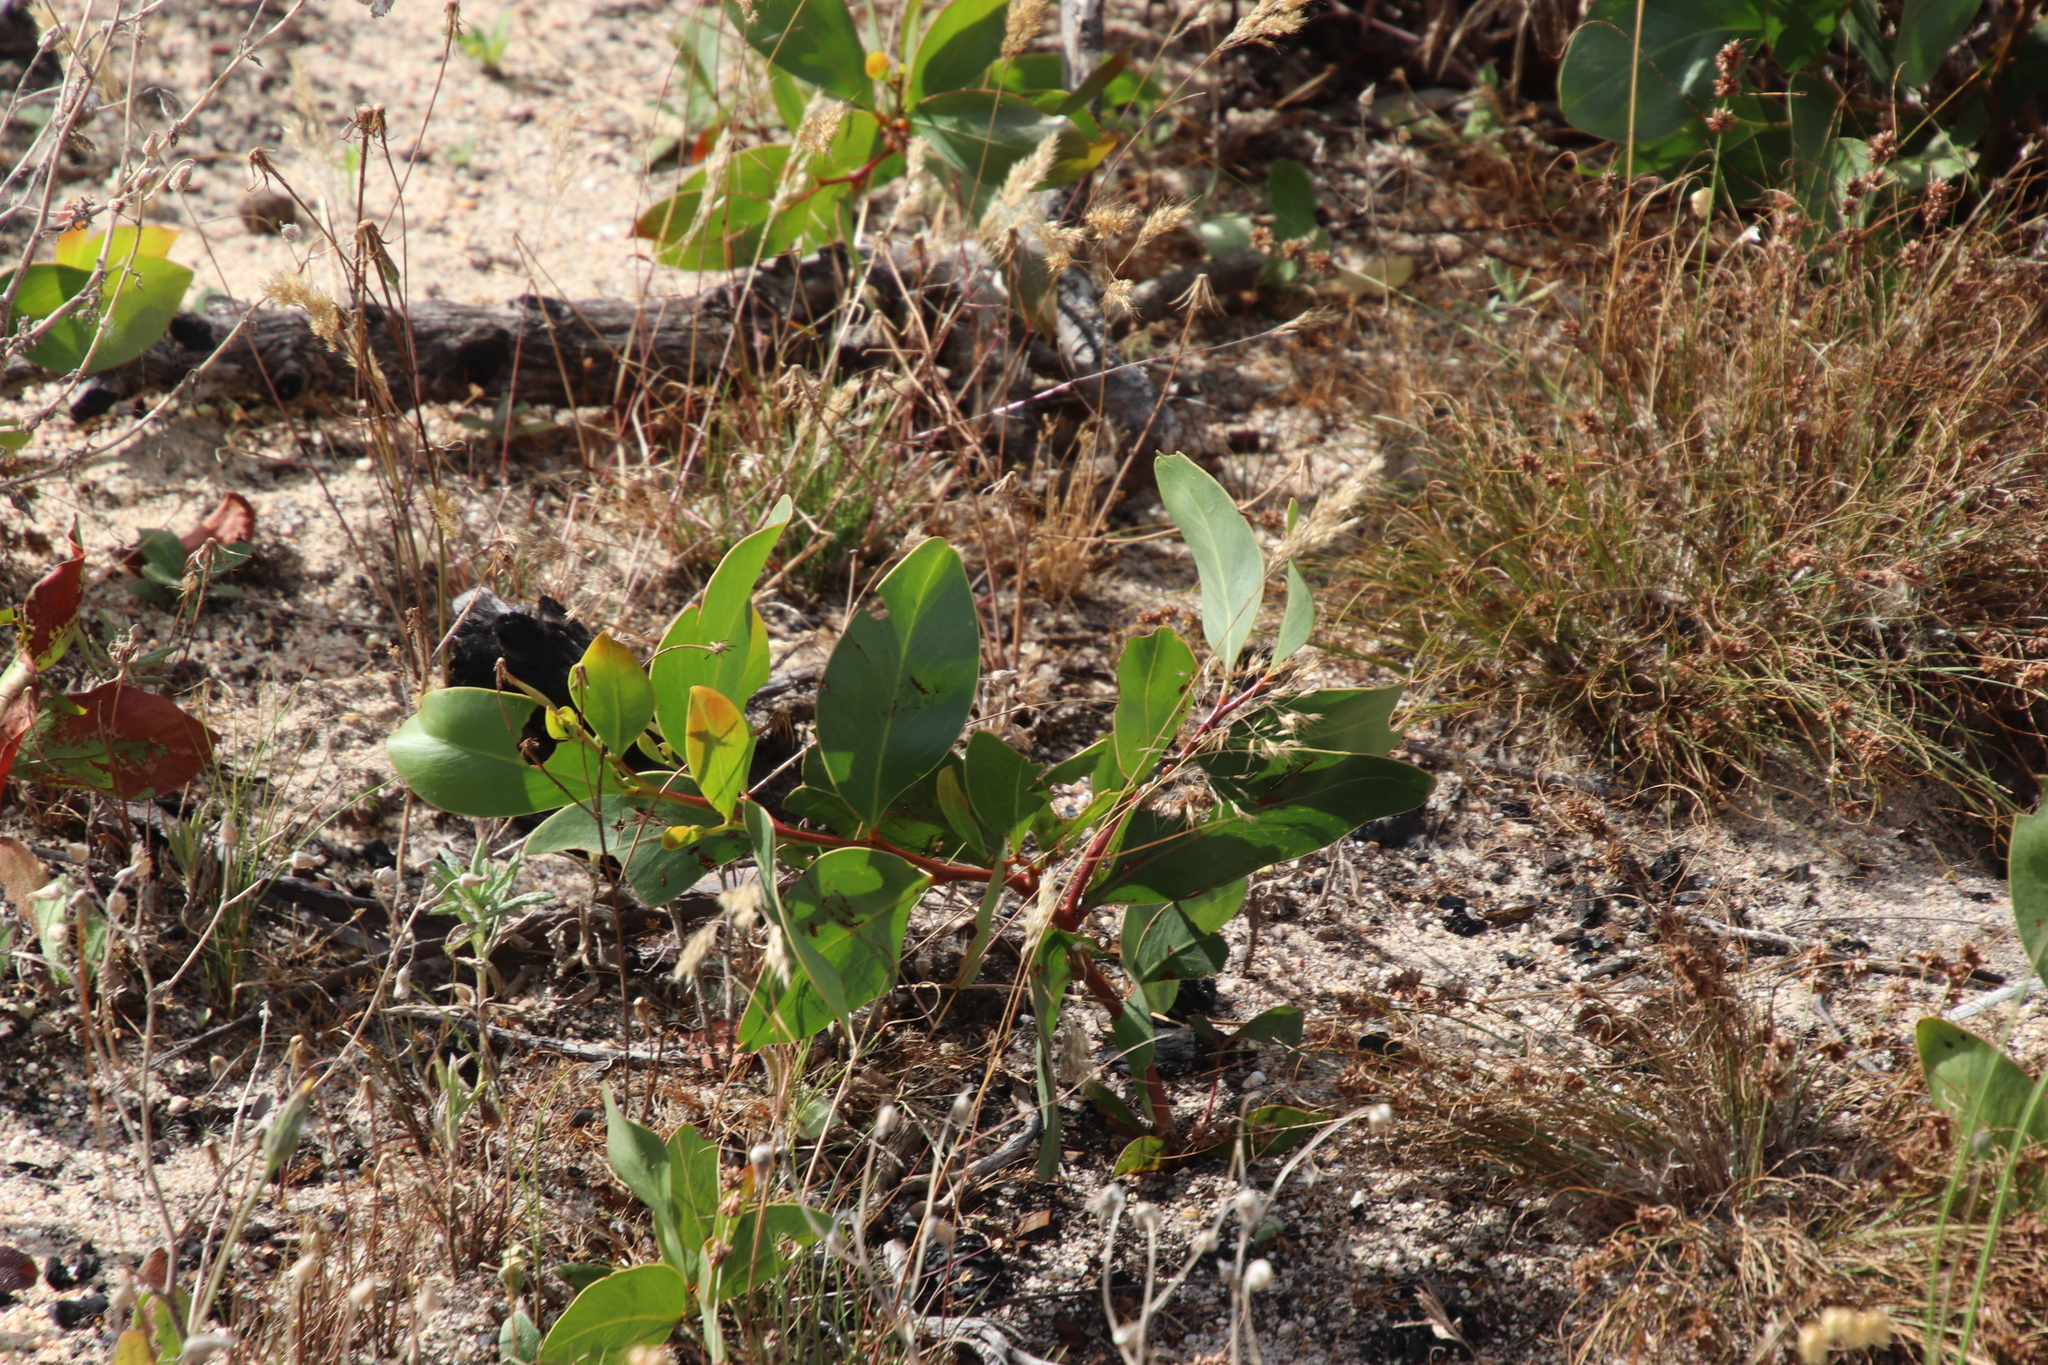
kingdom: Plantae
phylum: Tracheophyta
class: Magnoliopsida
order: Fabales
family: Fabaceae
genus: Acacia
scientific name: Acacia pycnantha
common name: Golden wattle
